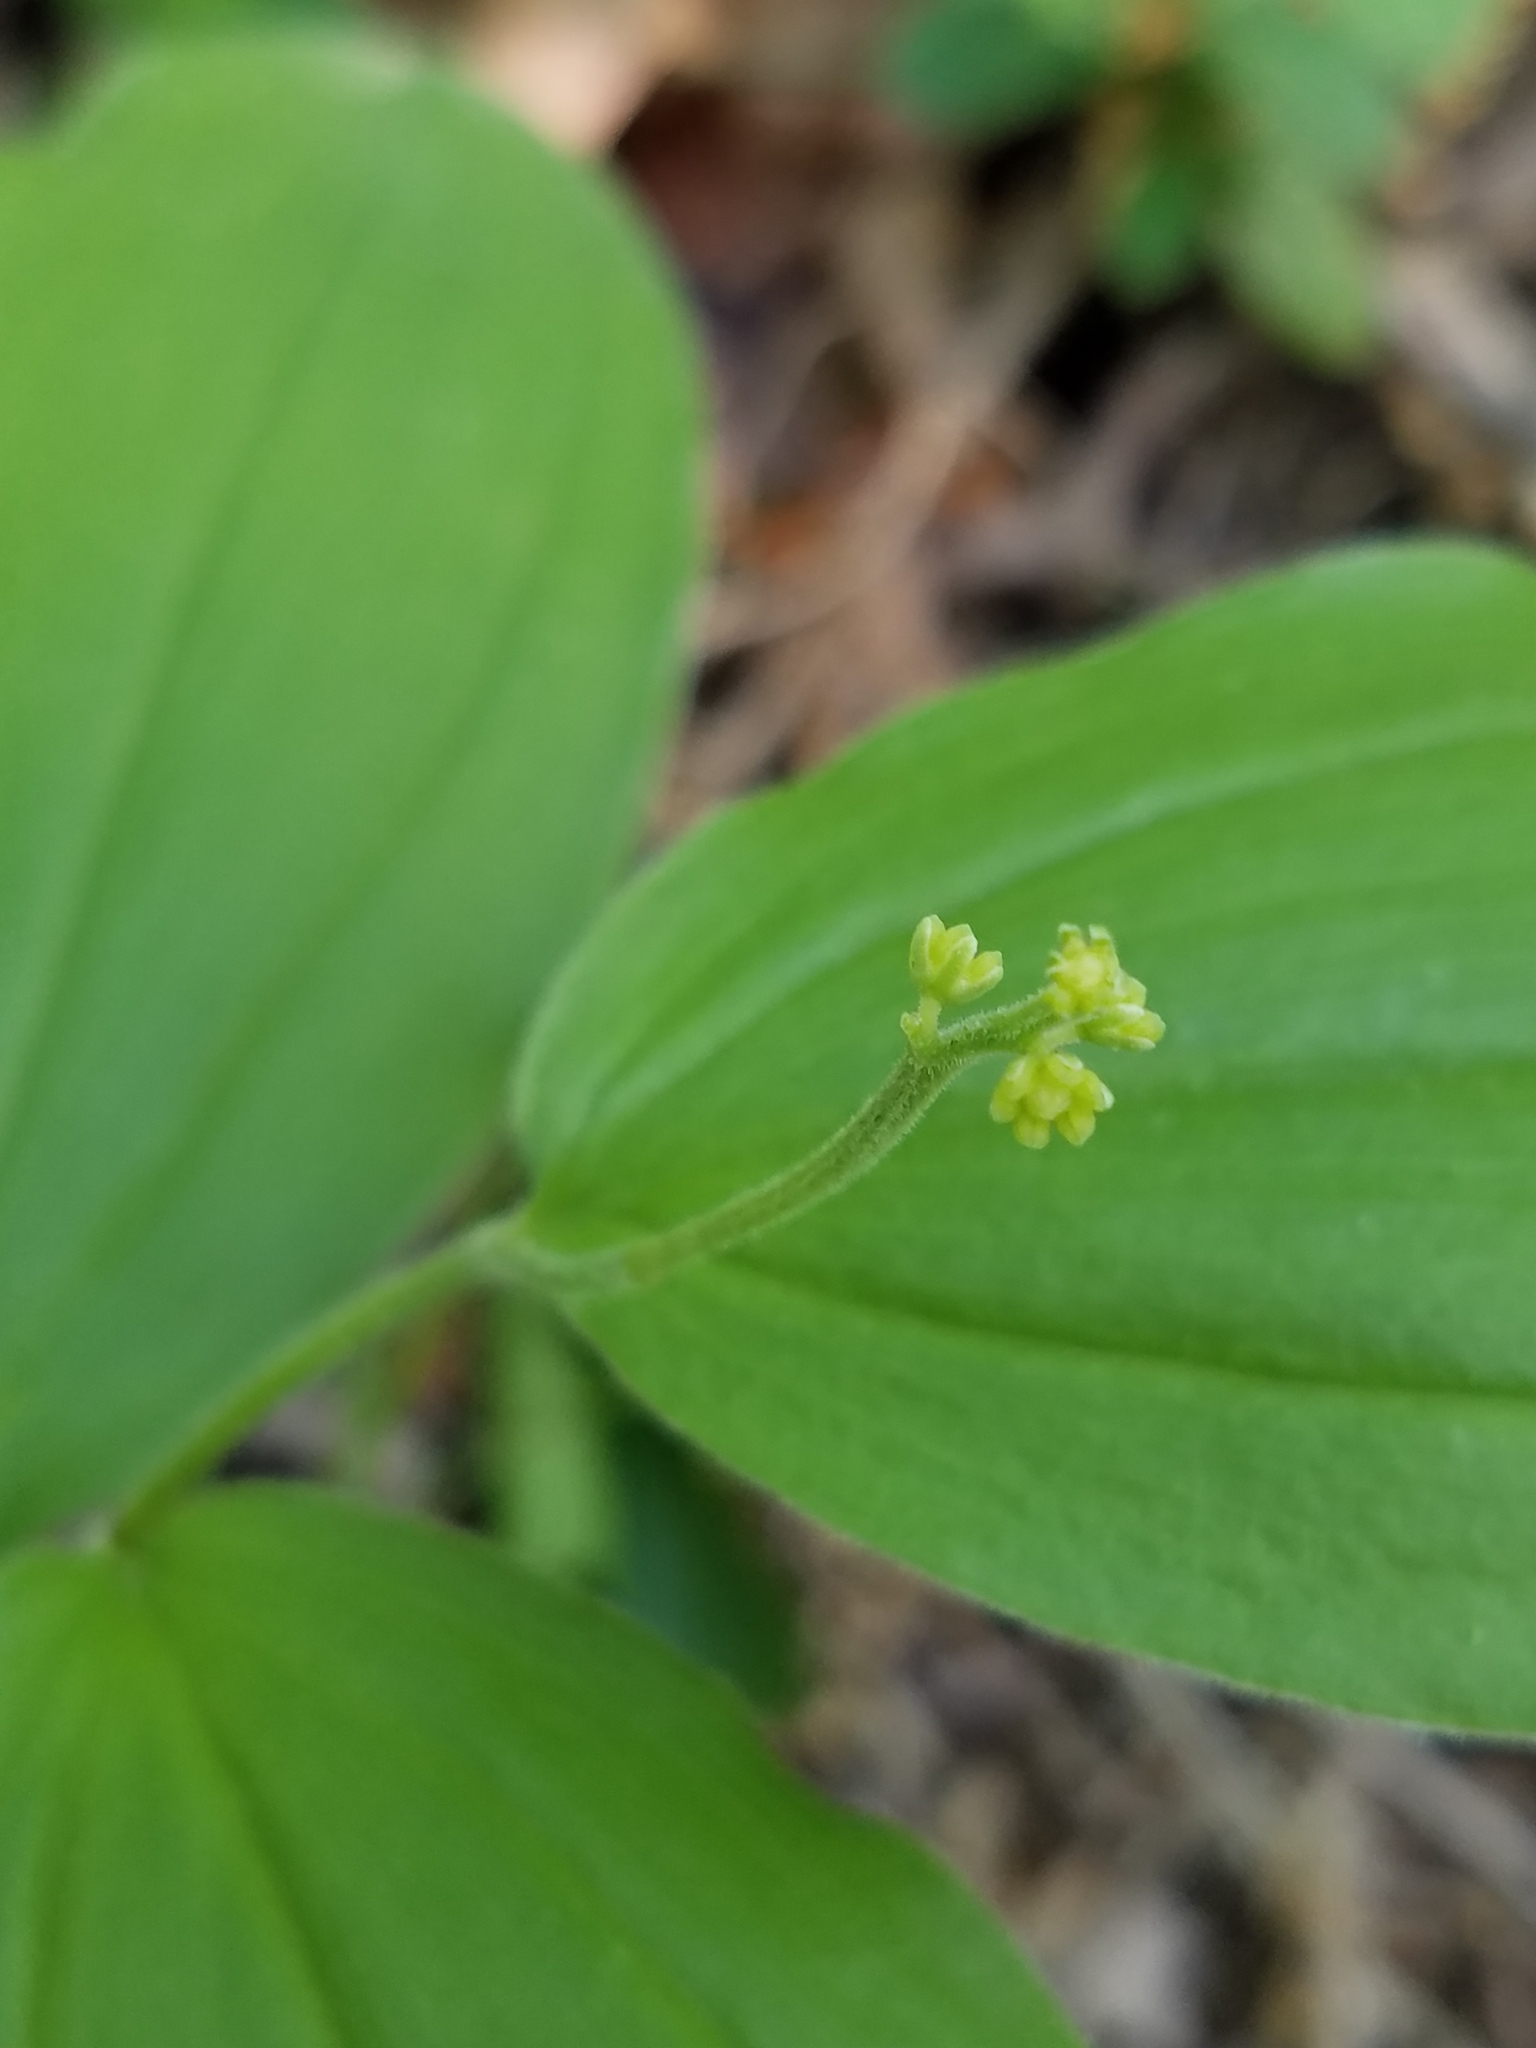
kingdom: Plantae
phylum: Tracheophyta
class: Liliopsida
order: Asparagales
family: Asparagaceae
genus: Maianthemum
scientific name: Maianthemum racemosum
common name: False spikenard
